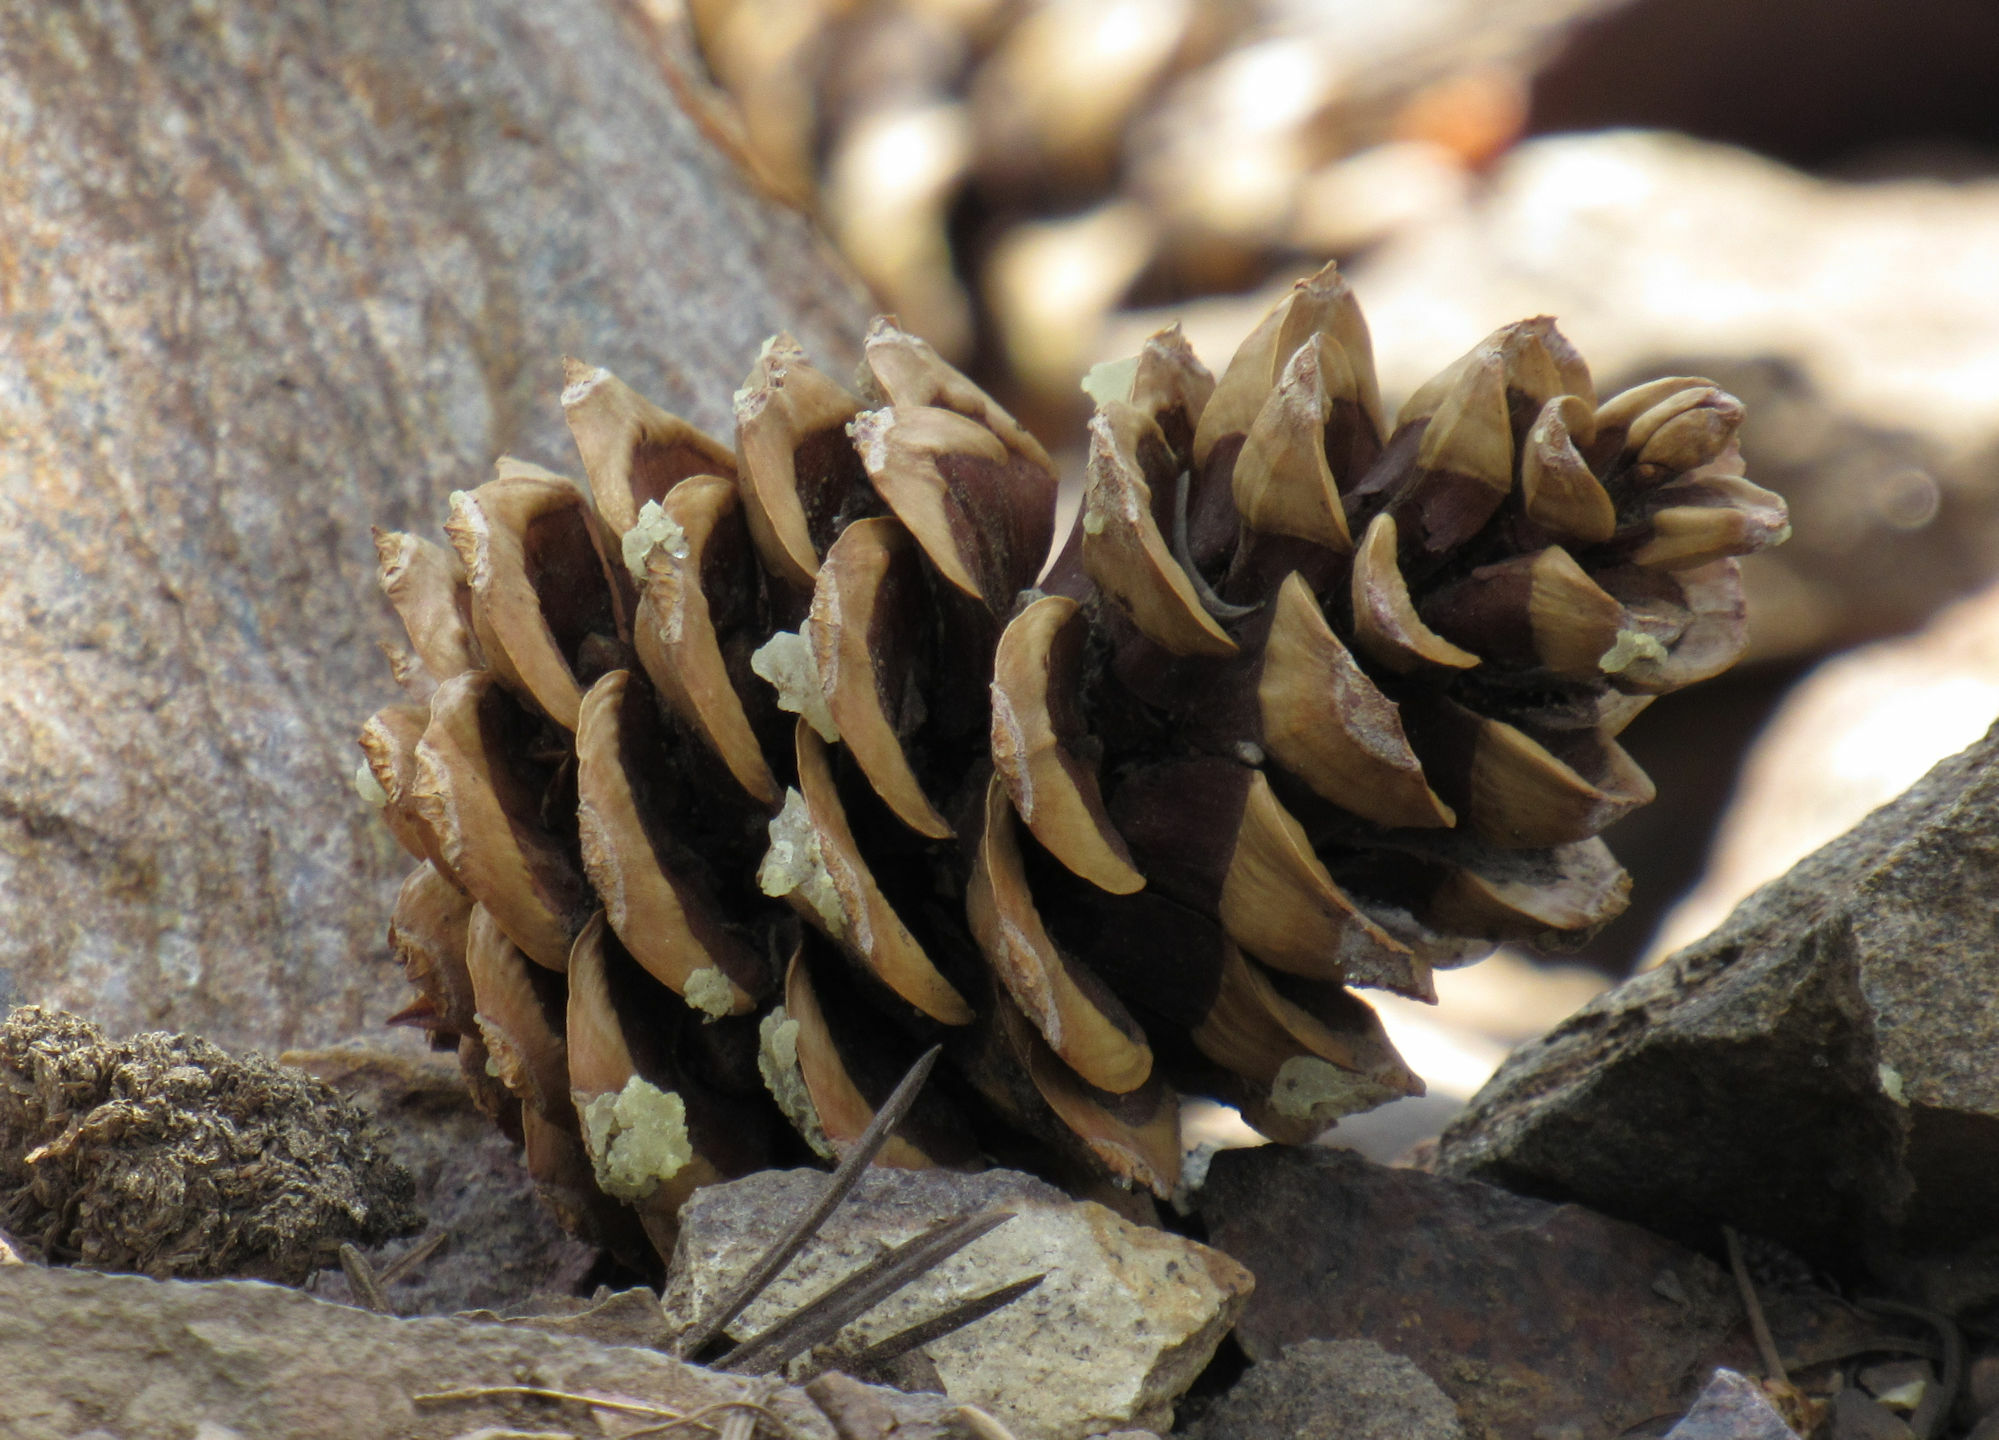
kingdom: Plantae
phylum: Tracheophyta
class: Pinopsida
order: Pinales
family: Pinaceae
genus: Pinus
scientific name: Pinus flexilis
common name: Limber pine
